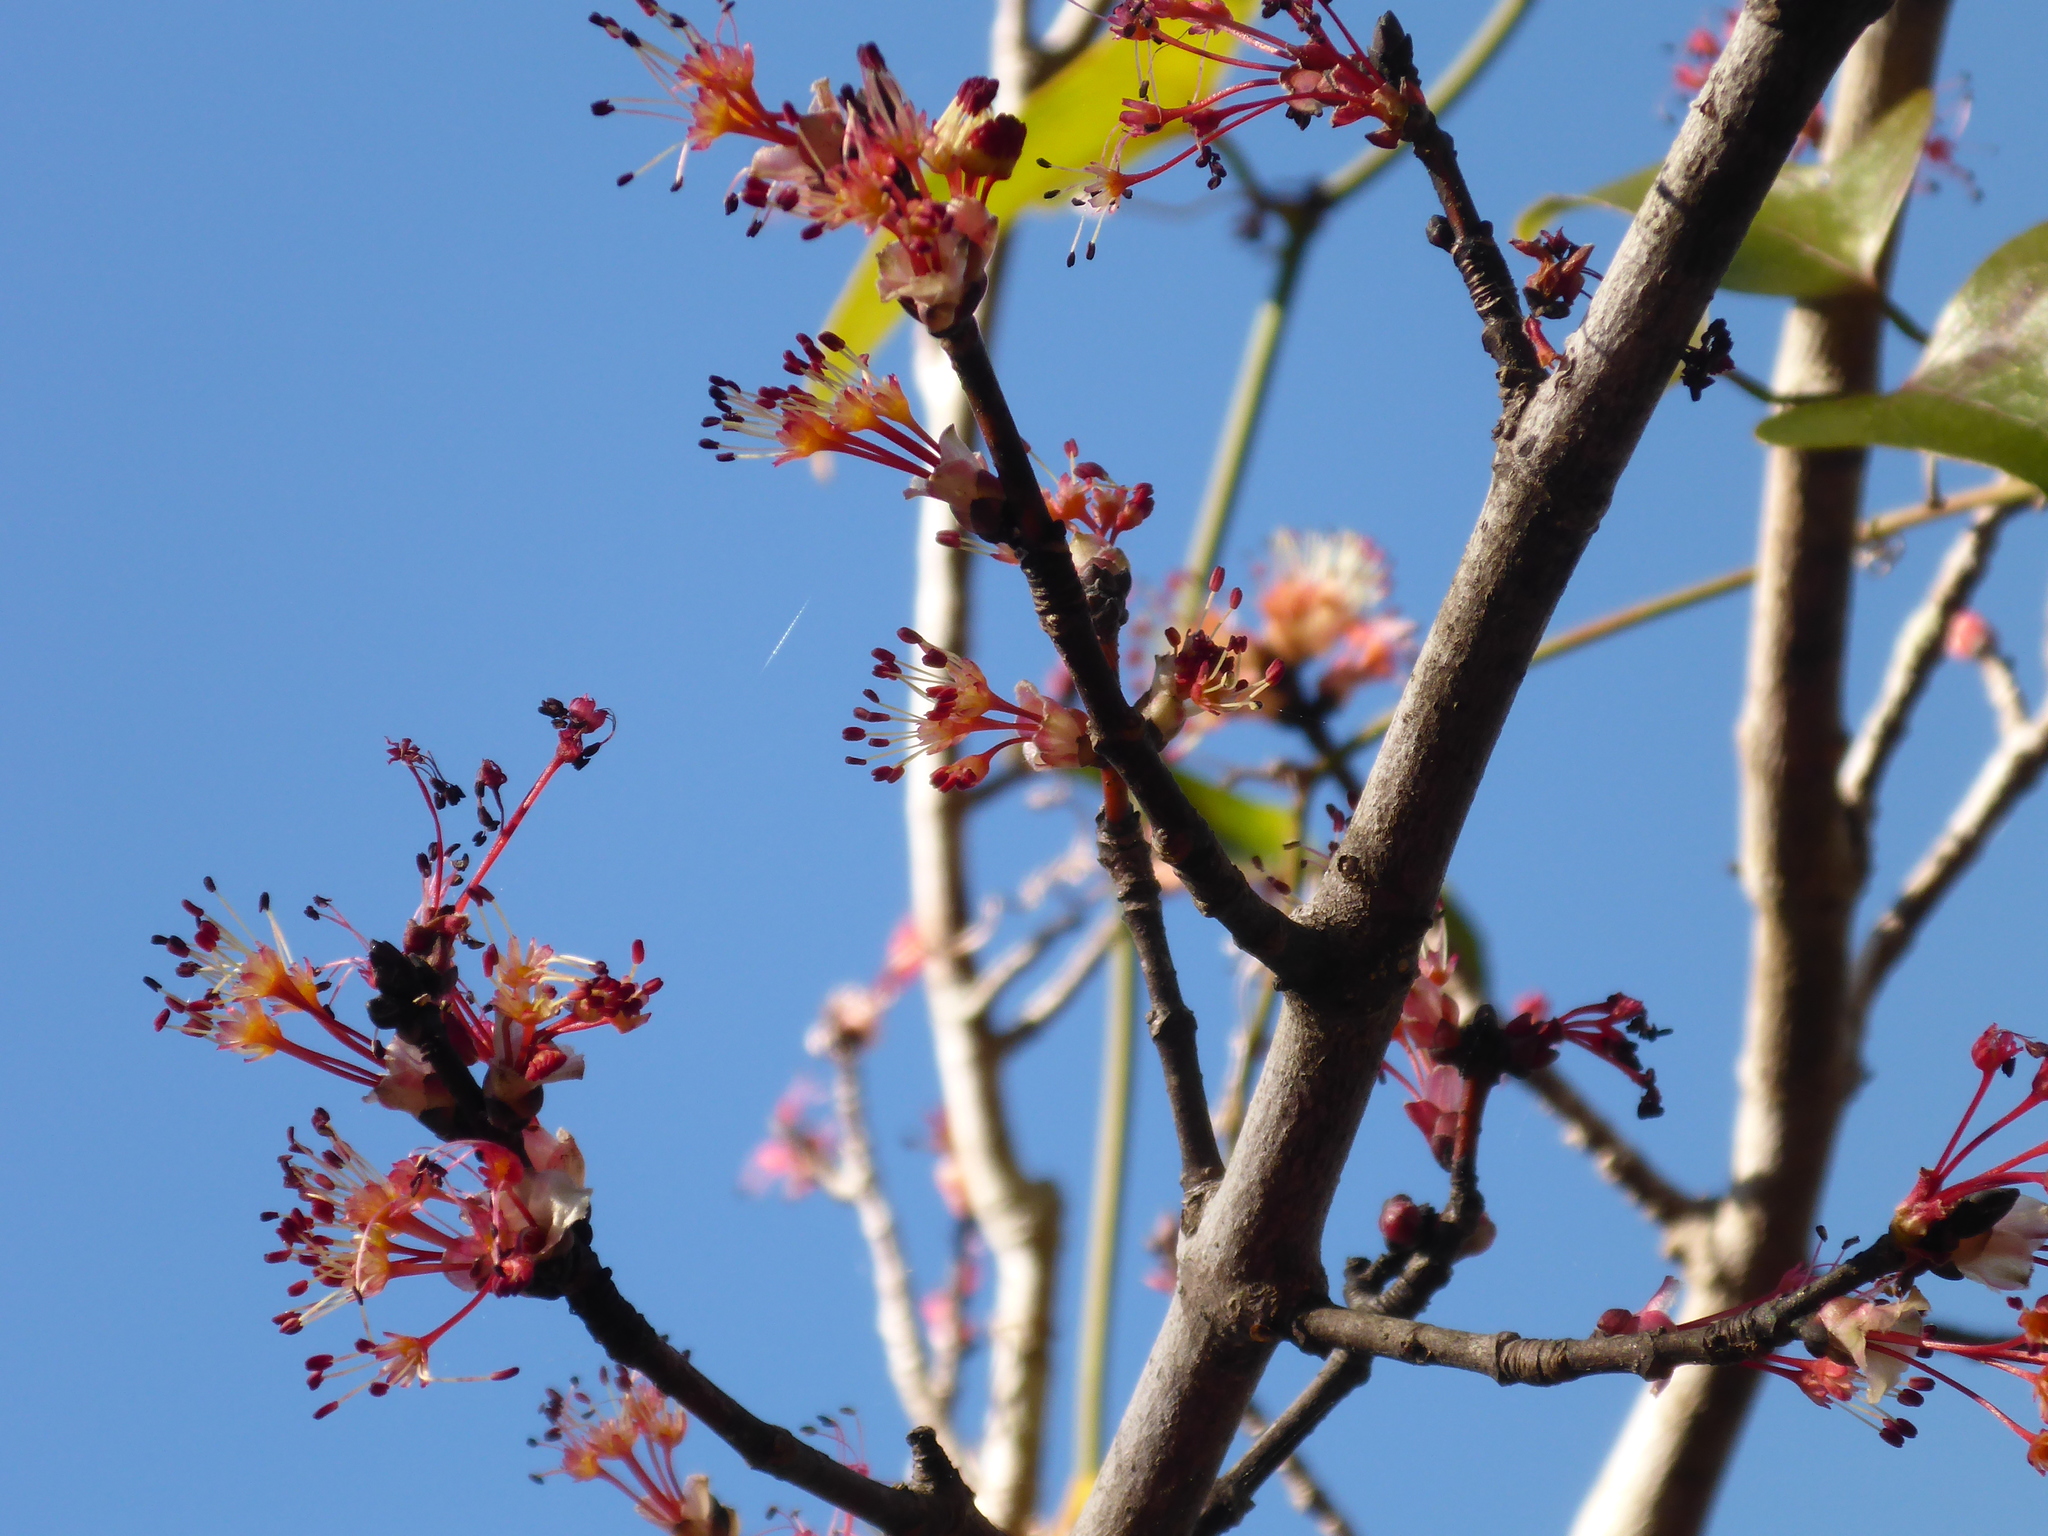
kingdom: Plantae
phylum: Tracheophyta
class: Magnoliopsida
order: Sapindales
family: Sapindaceae
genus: Acer
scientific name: Acer rubrum
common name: Red maple
